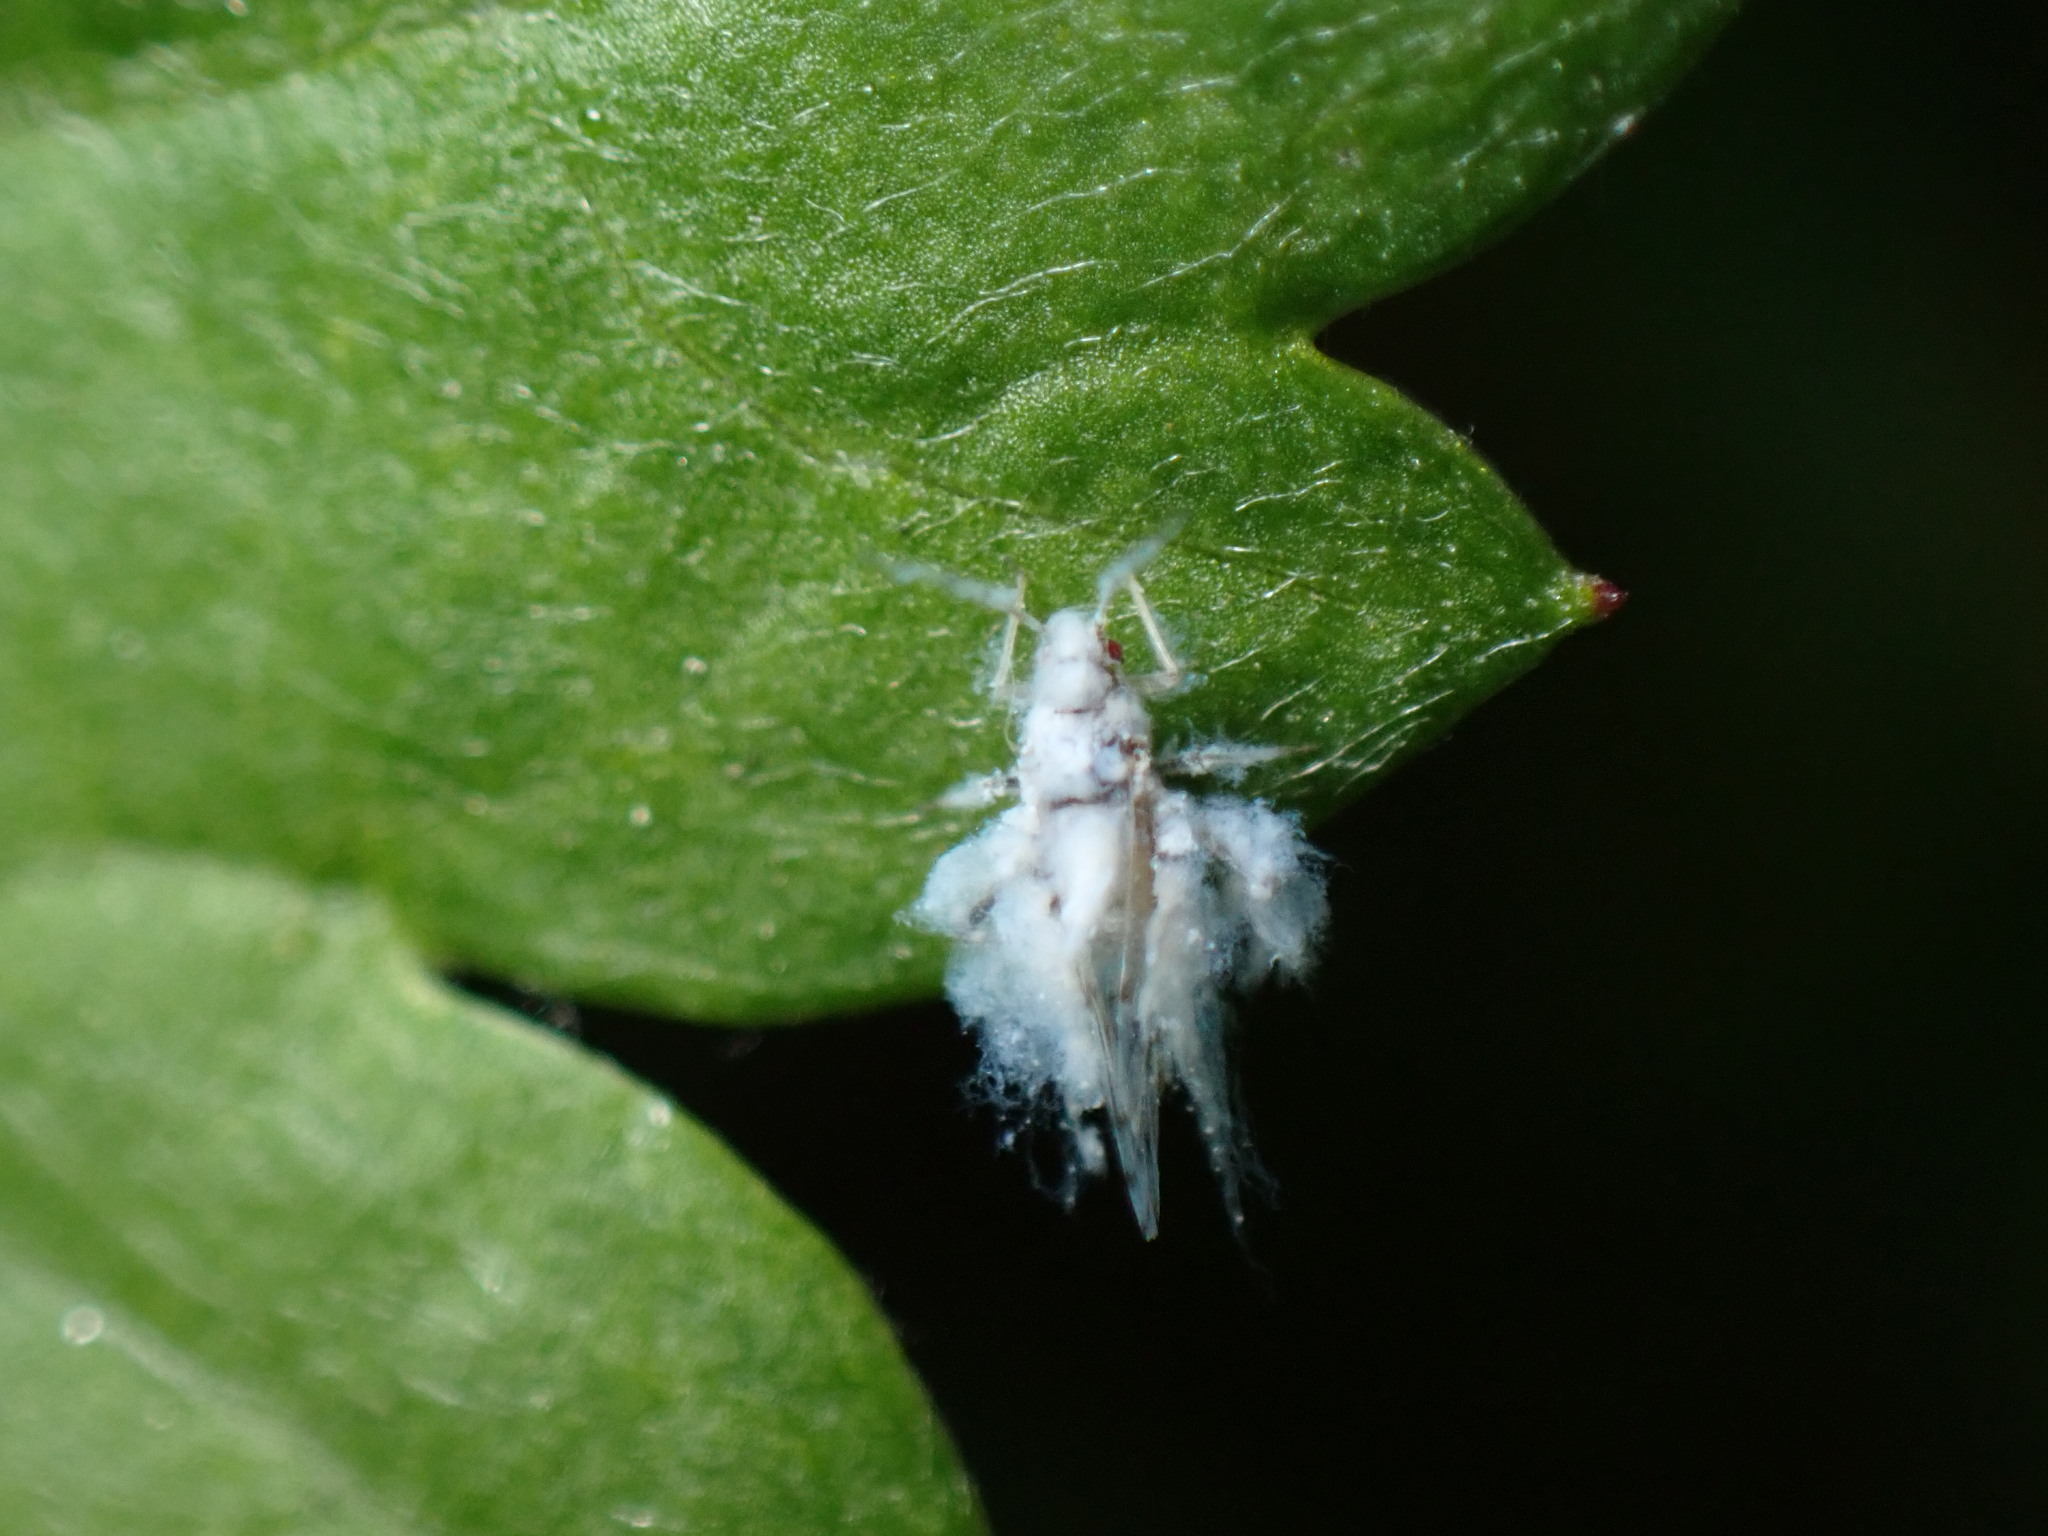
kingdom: Animalia
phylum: Arthropoda
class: Insecta
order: Hemiptera
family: Aphididae
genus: Shivaphis
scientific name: Shivaphis celti
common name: Asian wooly hackberry aphid
